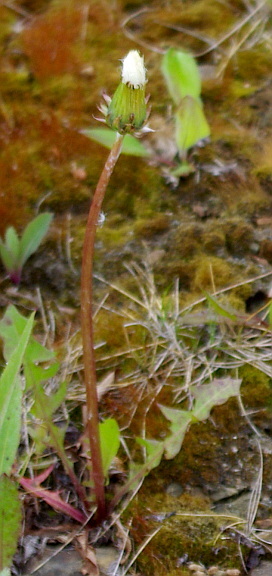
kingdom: Plantae
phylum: Tracheophyta
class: Magnoliopsida
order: Asterales
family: Asteraceae
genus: Taraxacum
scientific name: Taraxacum officinale
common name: Common dandelion
